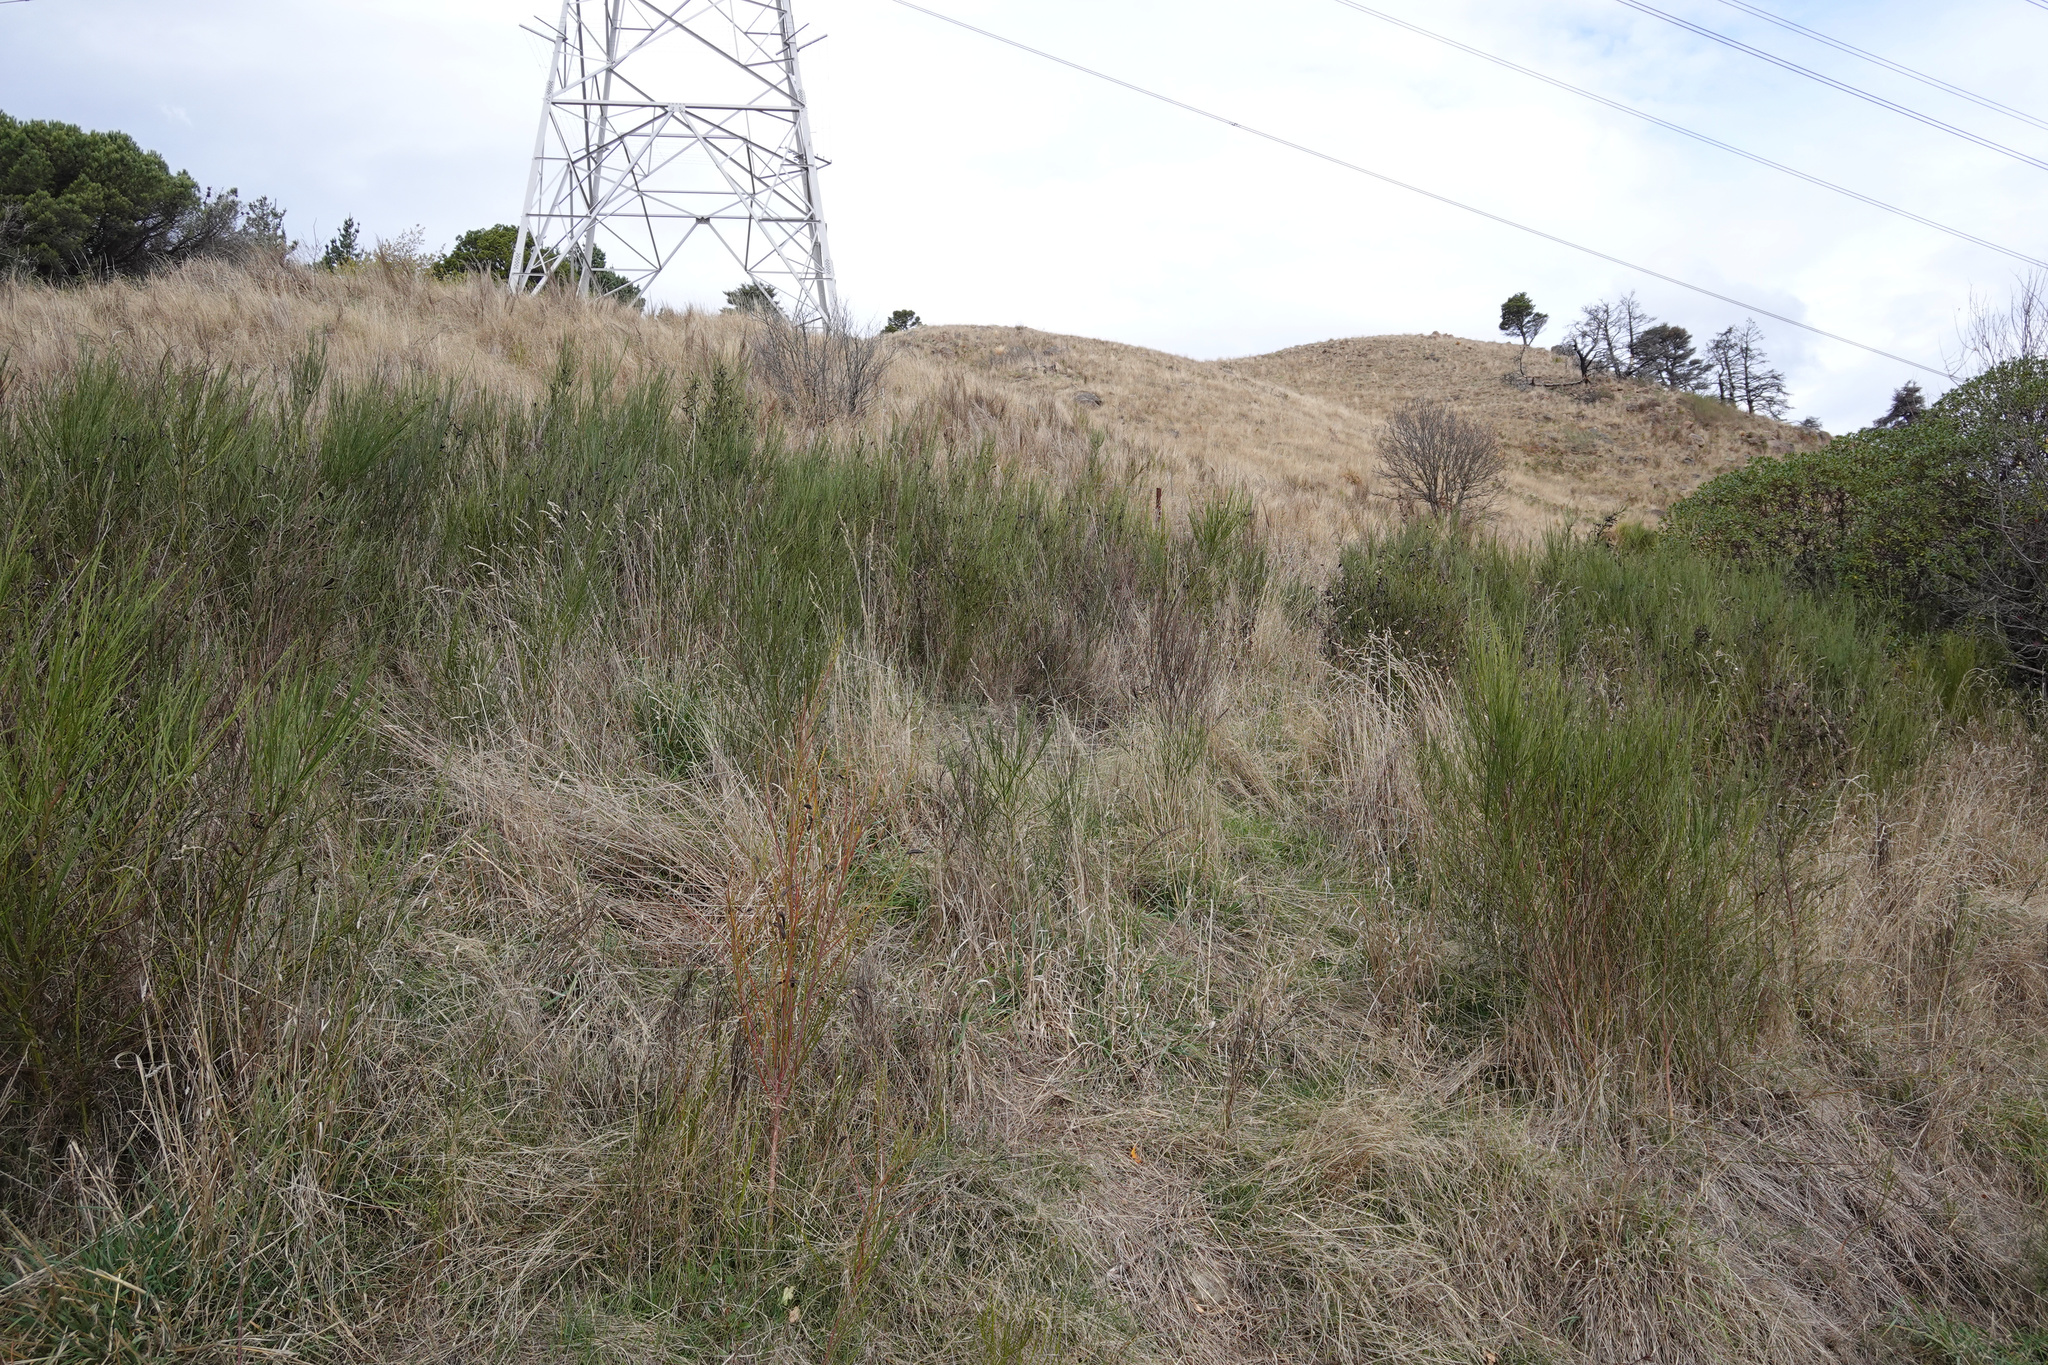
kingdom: Plantae
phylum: Tracheophyta
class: Magnoliopsida
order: Fabales
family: Fabaceae
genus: Cytisus
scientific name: Cytisus scoparius
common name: Scotch broom
